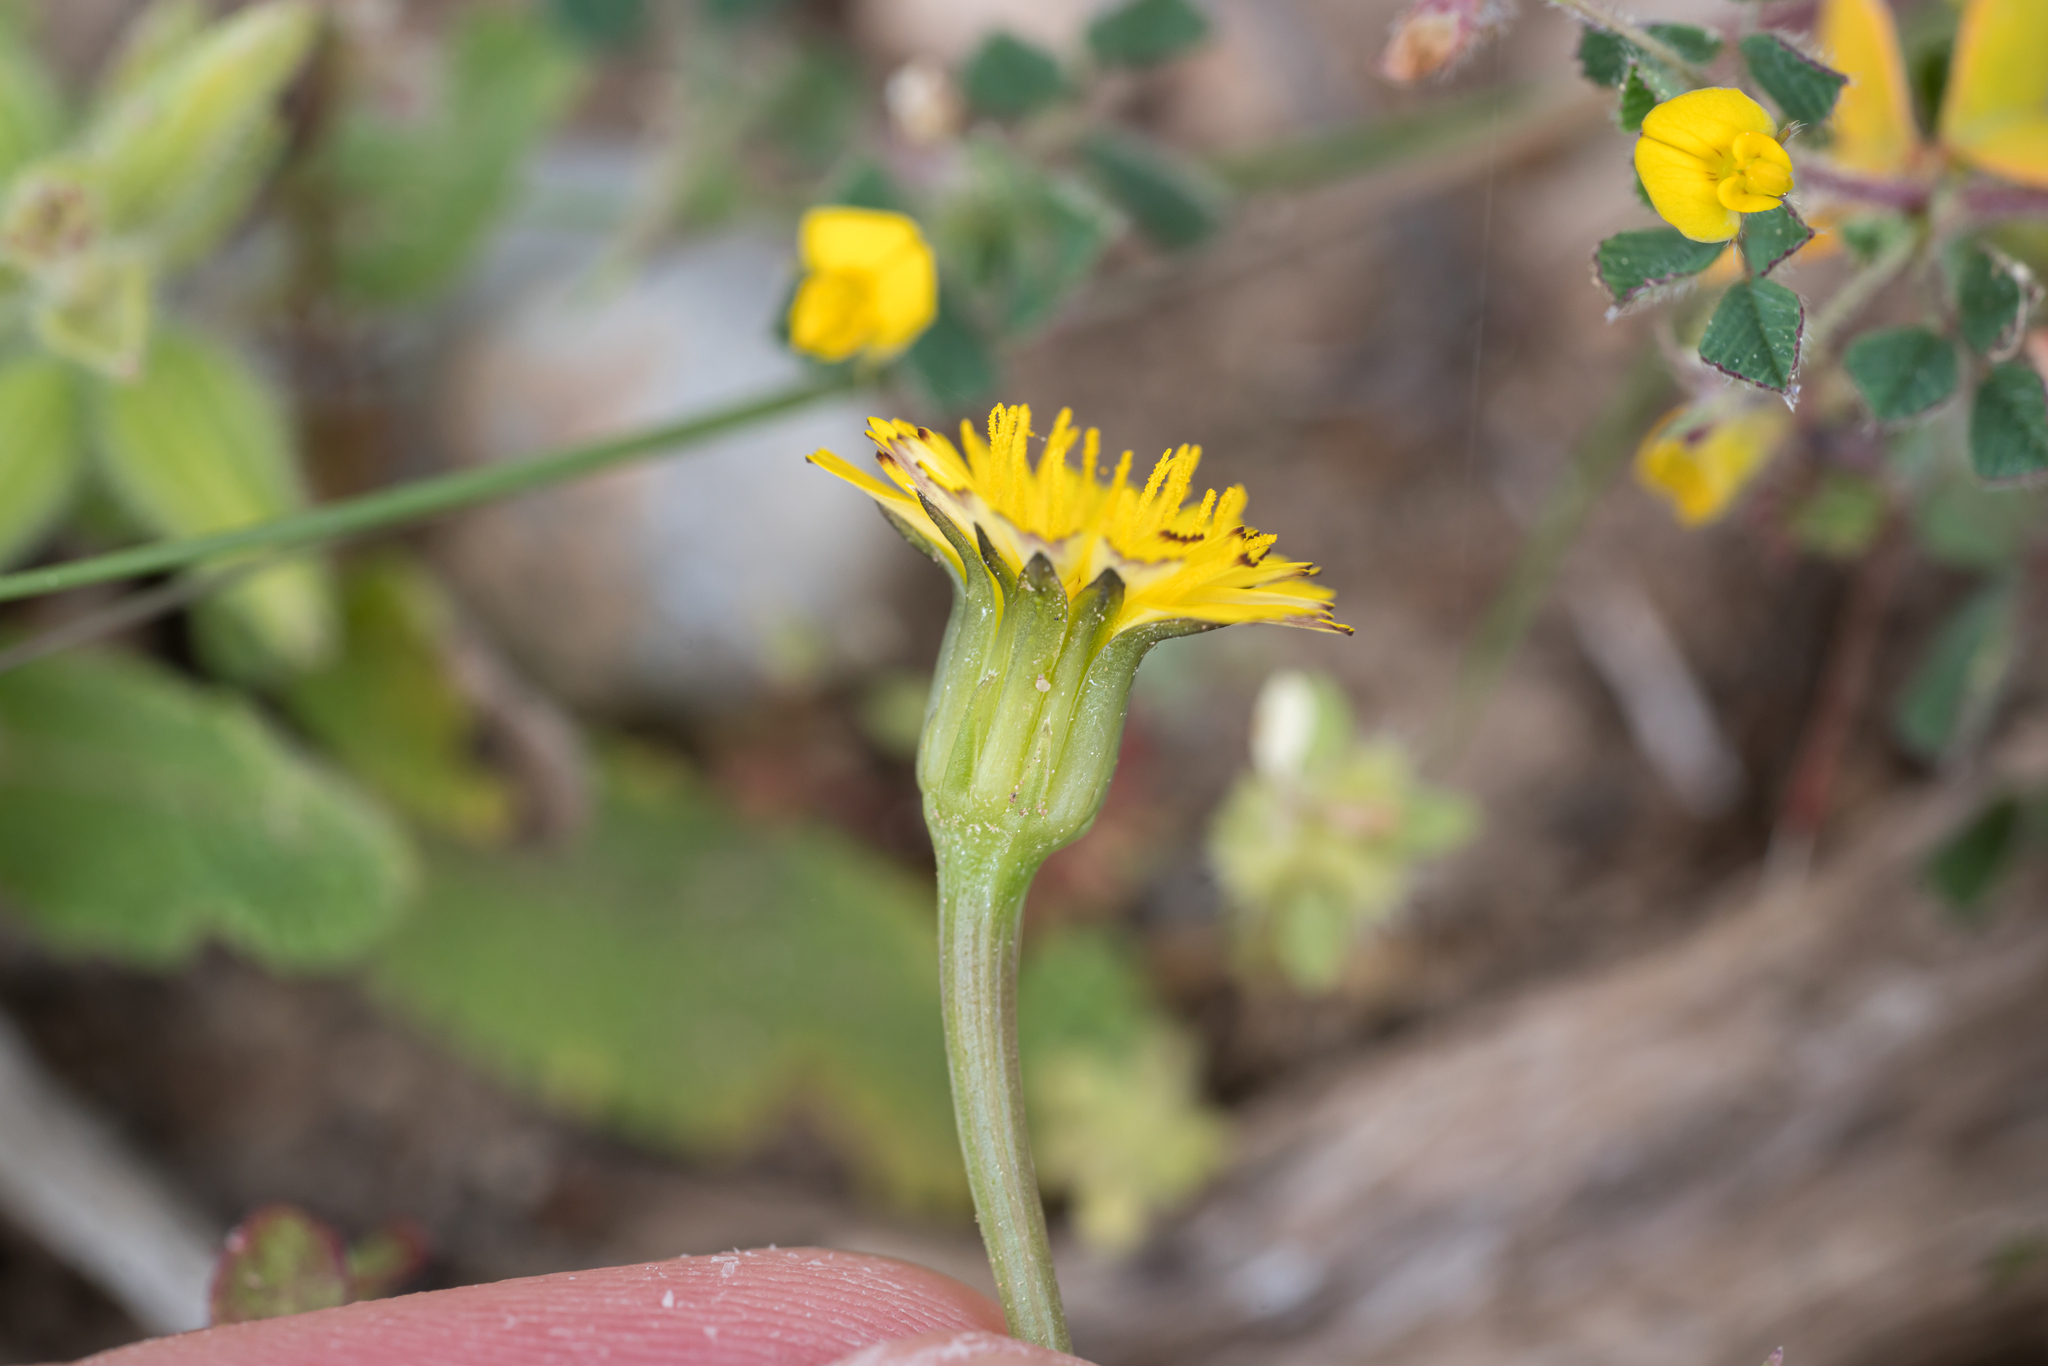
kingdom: Plantae
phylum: Tracheophyta
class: Magnoliopsida
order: Asterales
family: Asteraceae
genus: Hedypnois
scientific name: Hedypnois rhagadioloides
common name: Cretan weed
